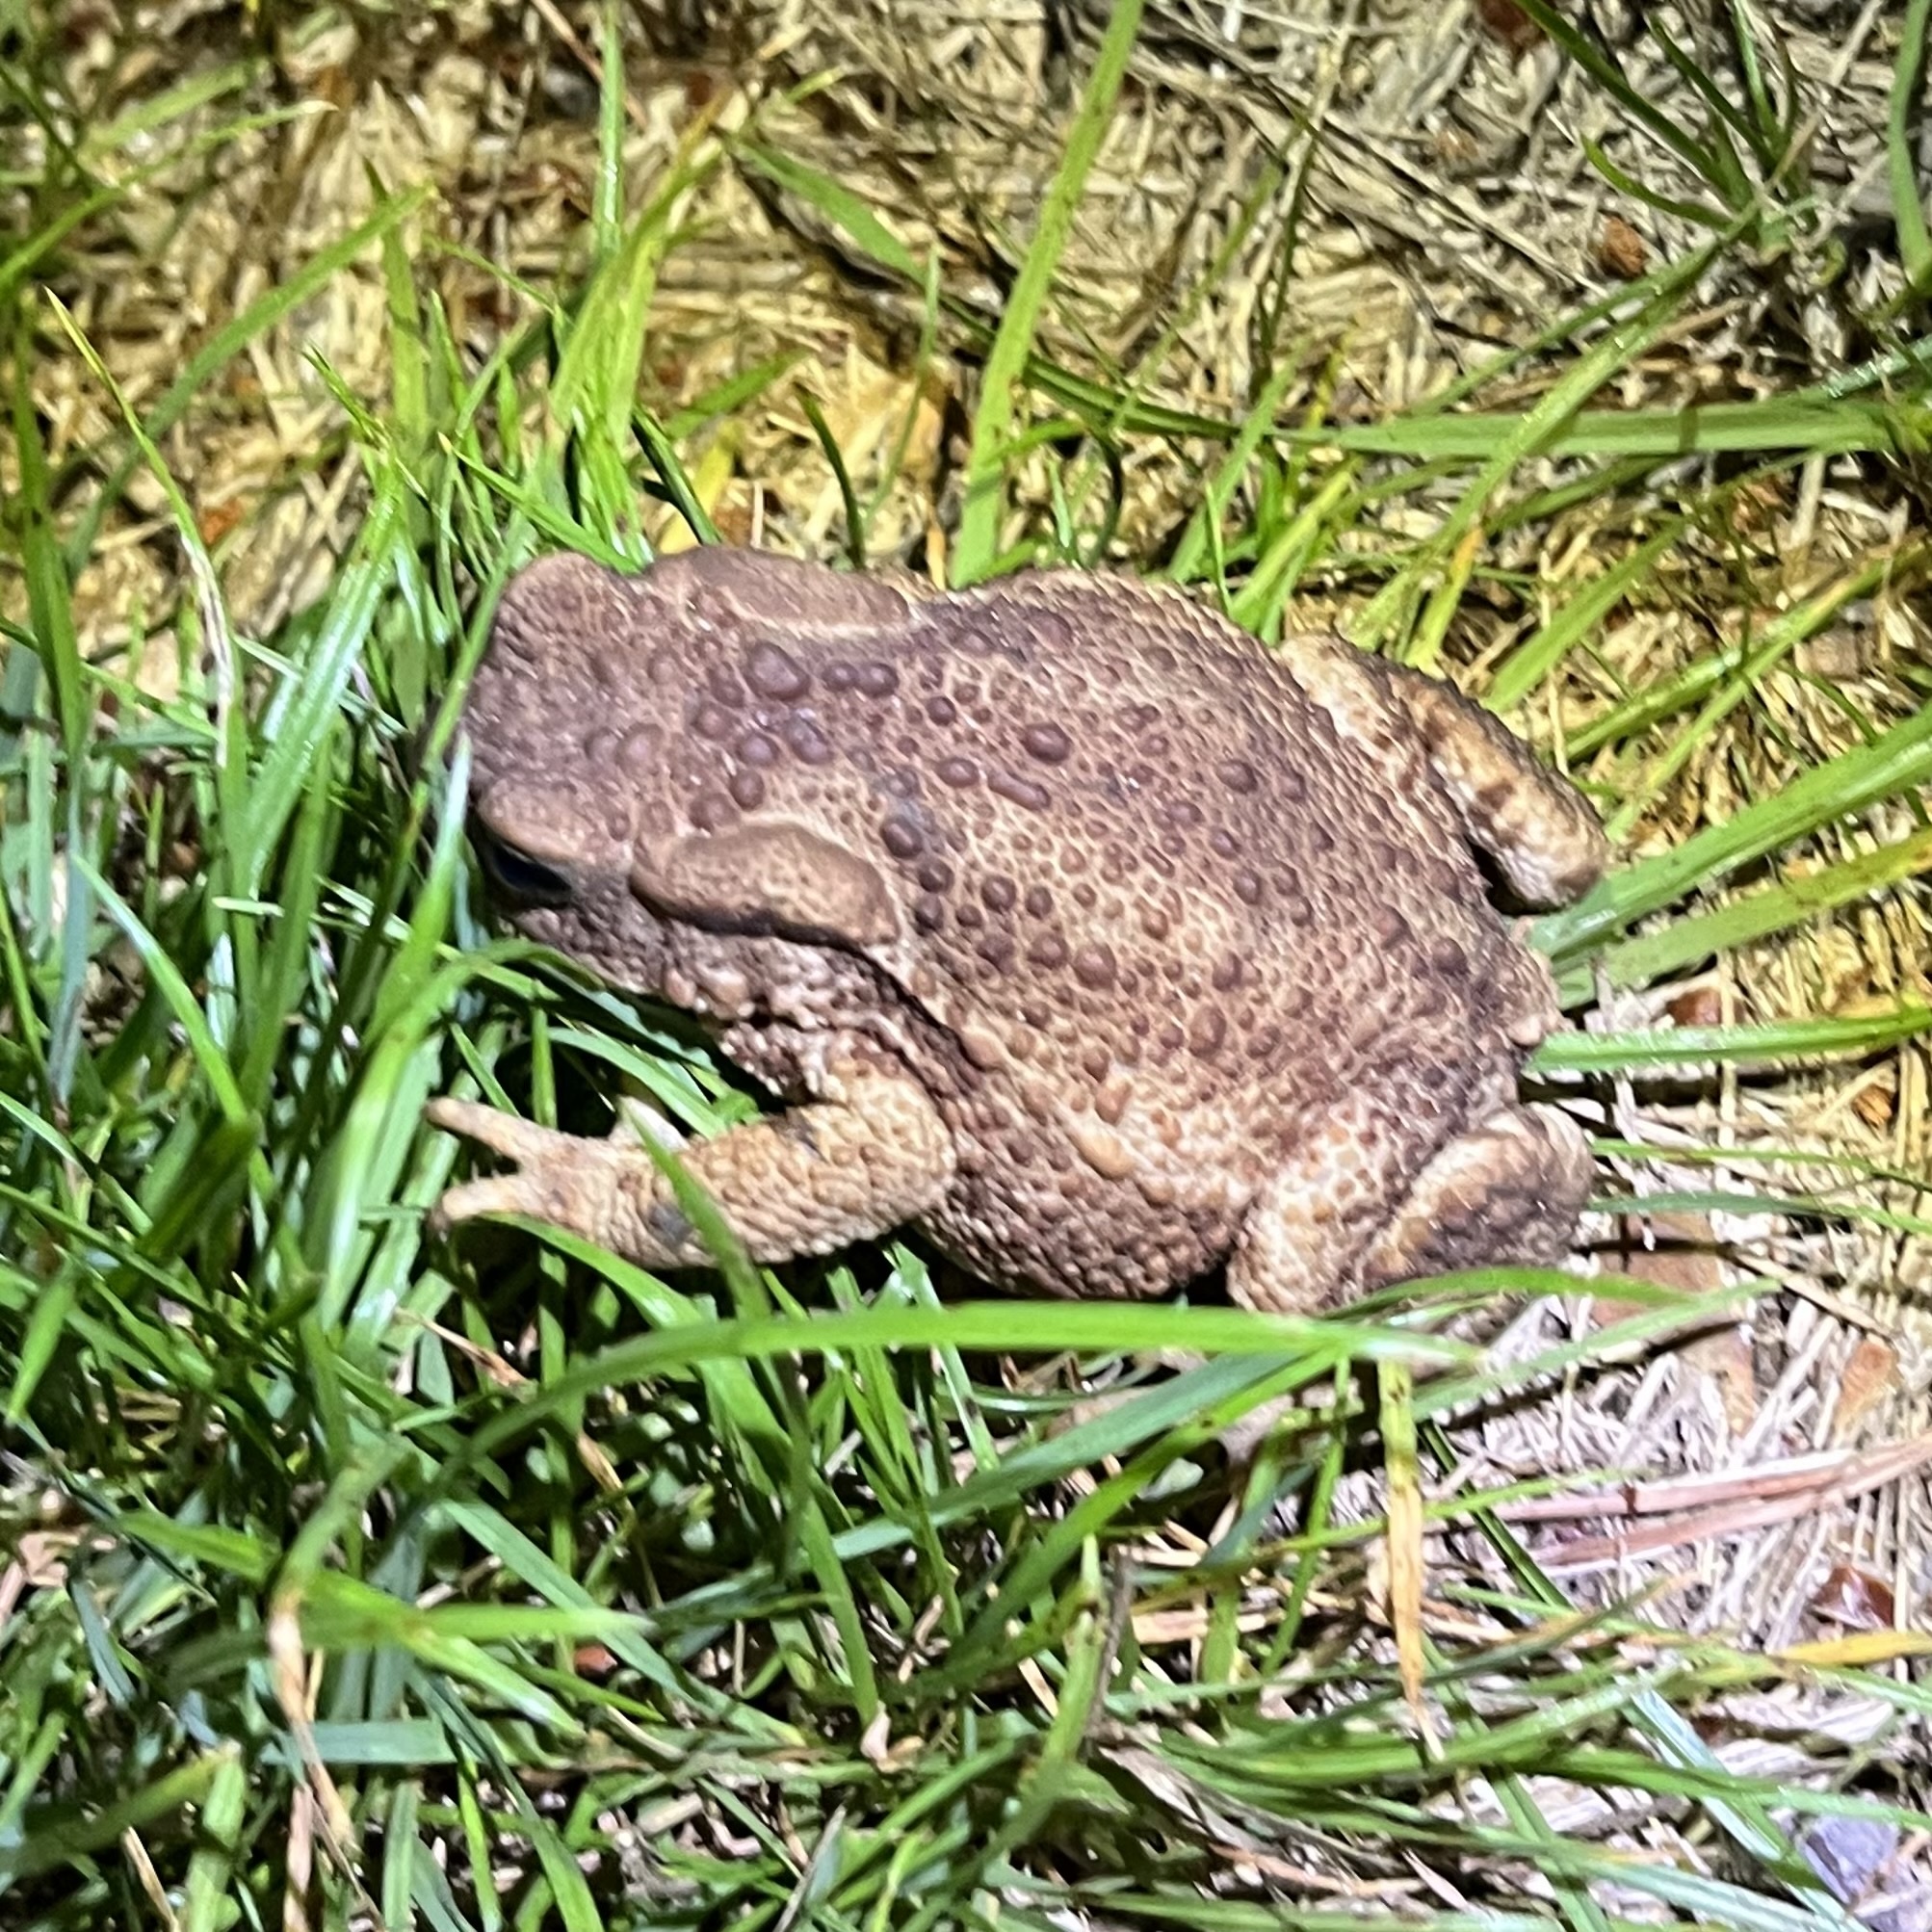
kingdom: Animalia
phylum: Chordata
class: Amphibia
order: Anura
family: Bufonidae
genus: Bufo
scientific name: Bufo bufo
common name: Common toad
